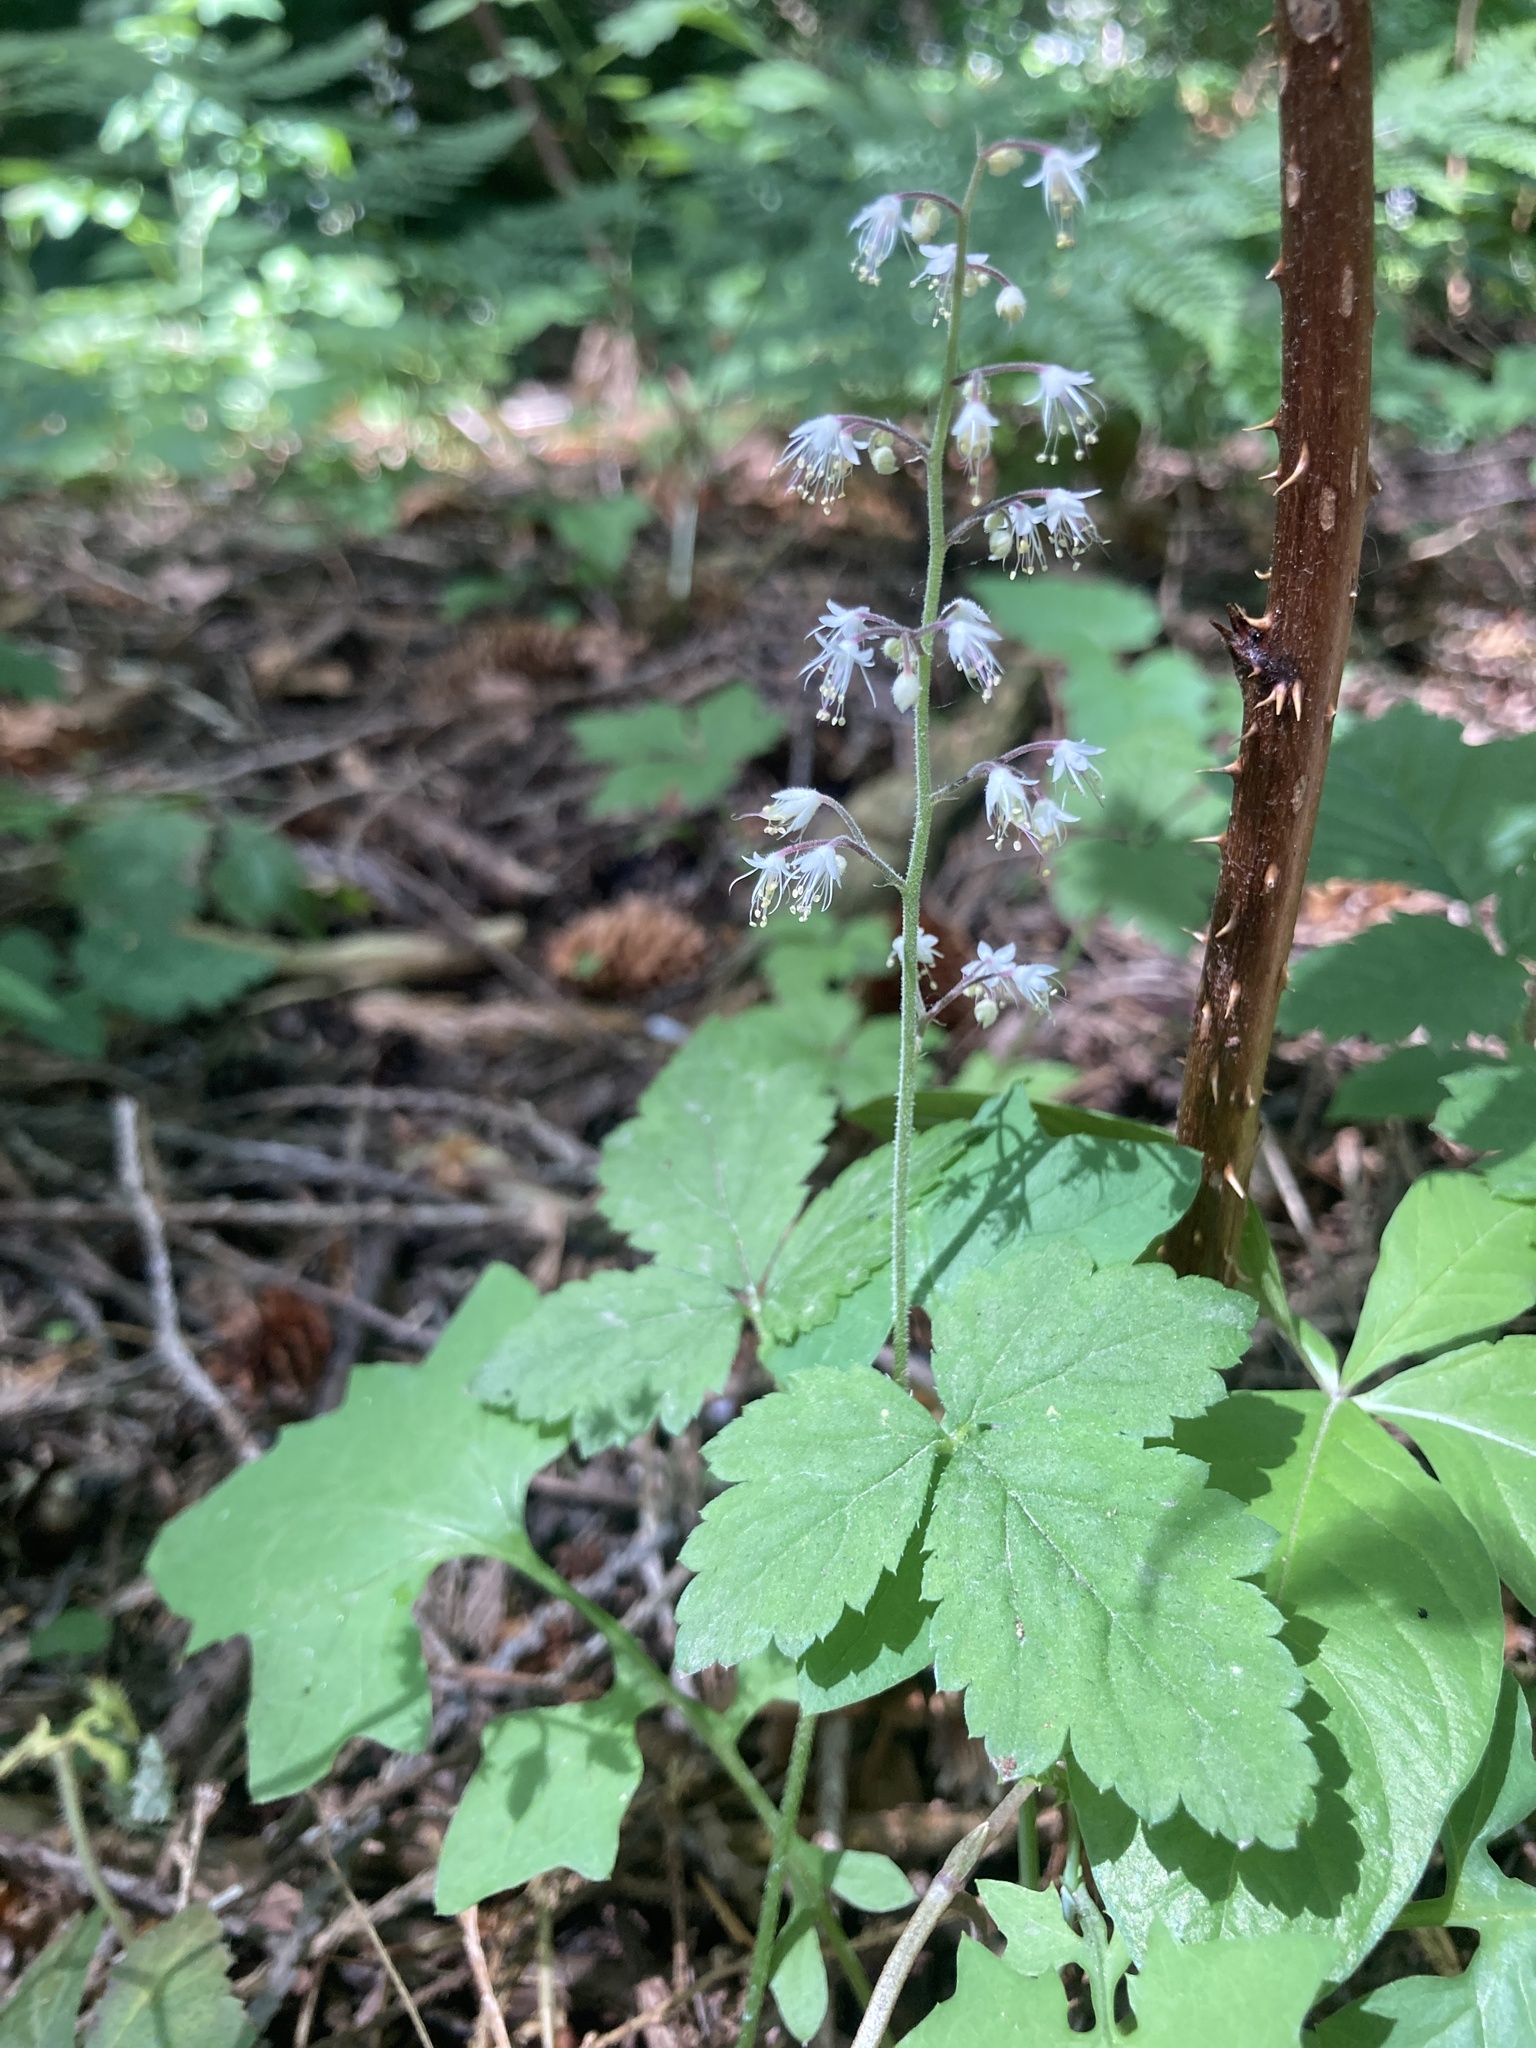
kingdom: Plantae
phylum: Tracheophyta
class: Magnoliopsida
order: Saxifragales
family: Saxifragaceae
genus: Tiarella
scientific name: Tiarella trifoliata
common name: Sugar-scoop
